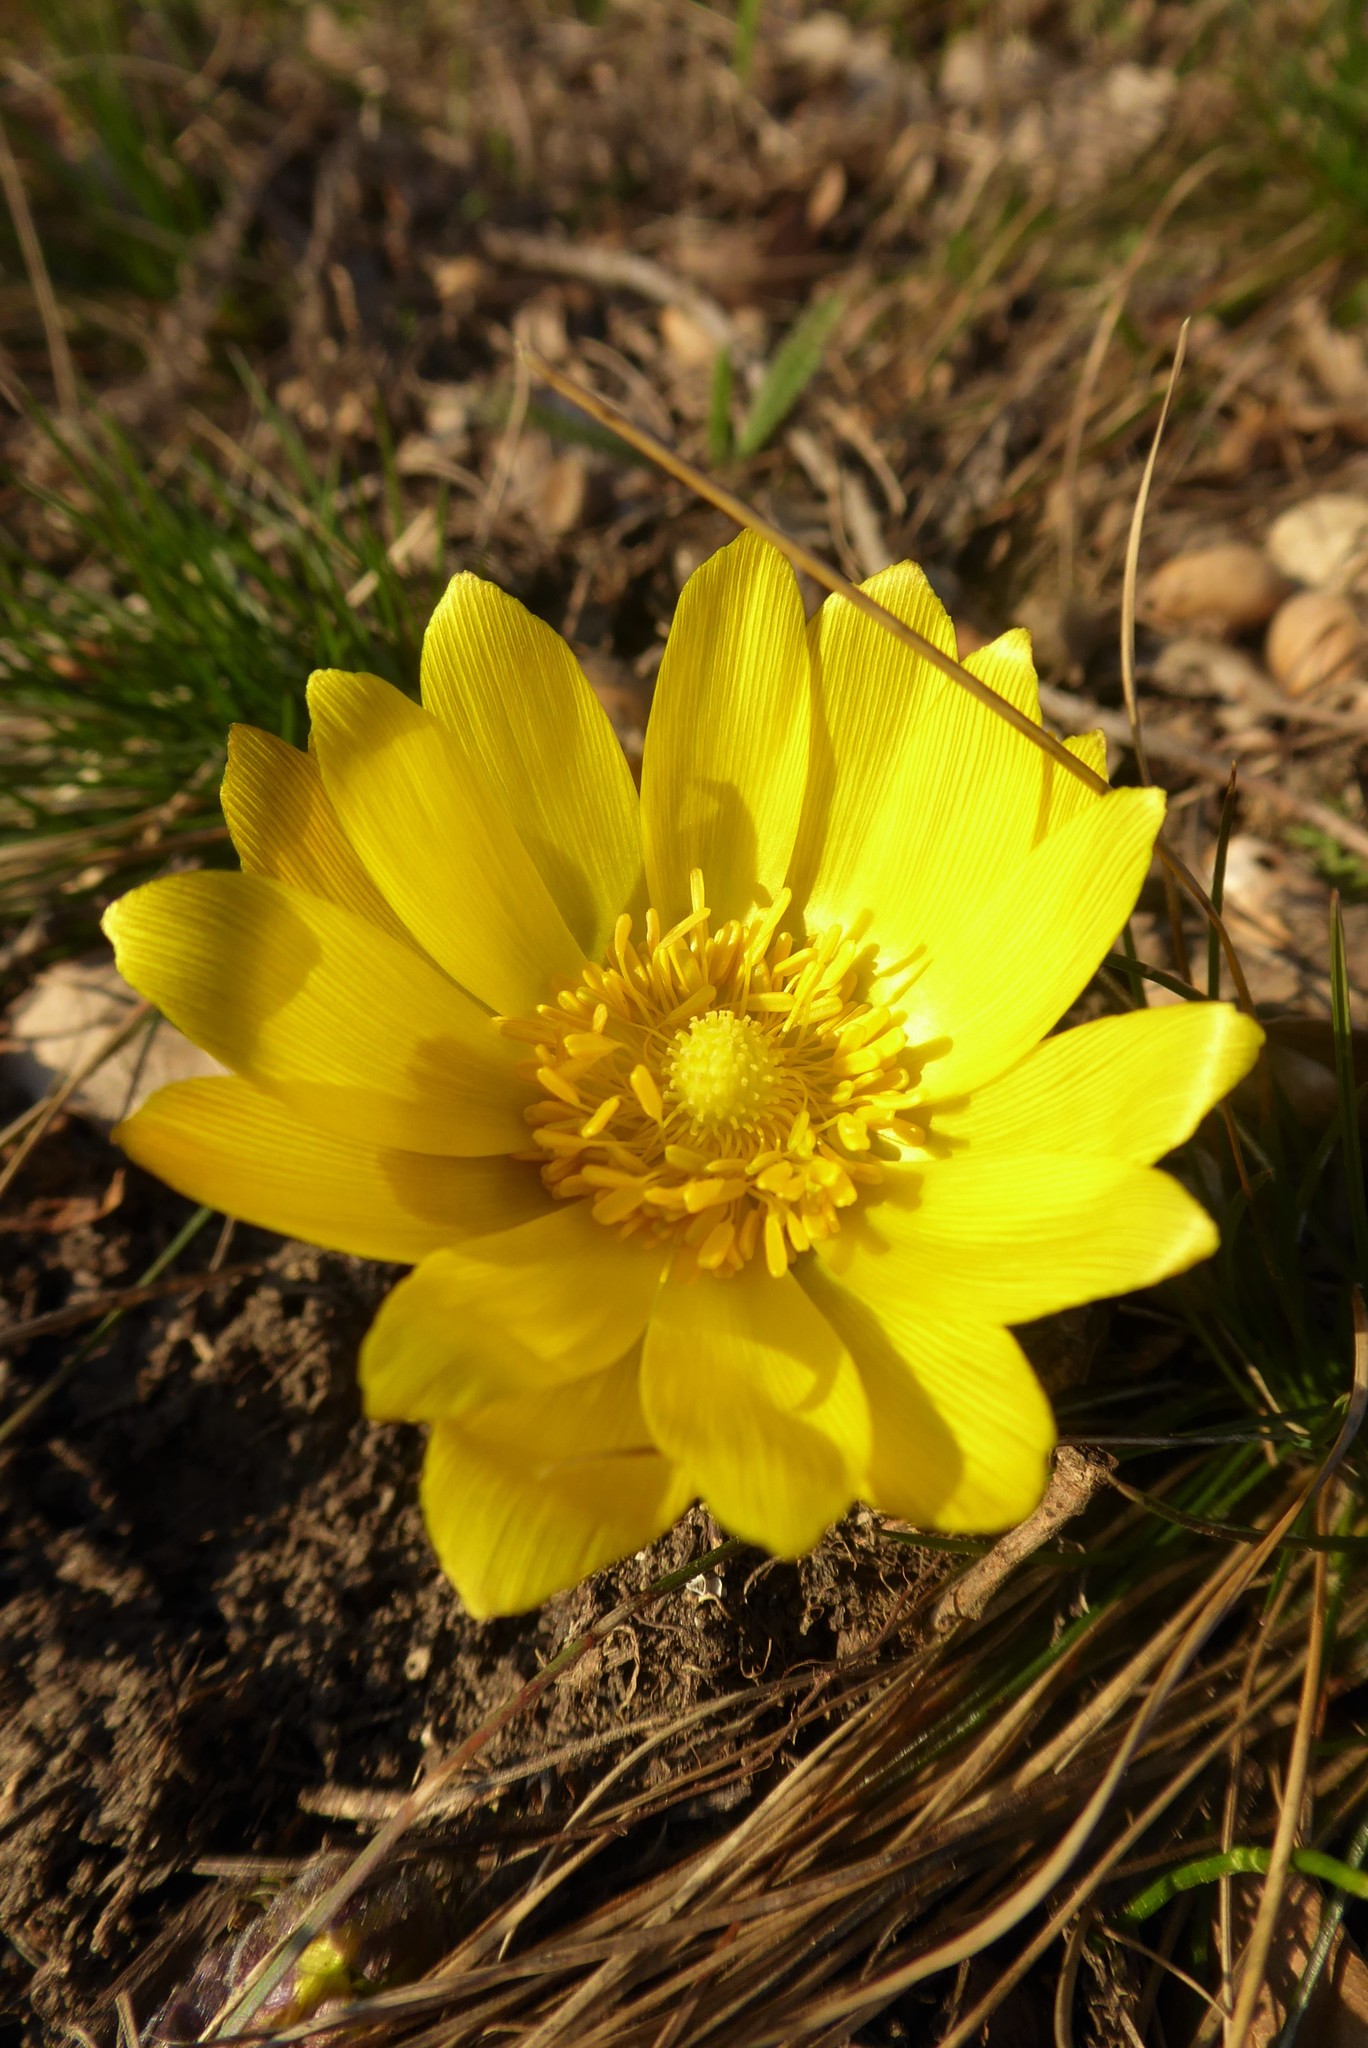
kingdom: Plantae
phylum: Tracheophyta
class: Magnoliopsida
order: Ranunculales
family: Ranunculaceae
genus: Adonis
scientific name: Adonis vernalis
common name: Yellow pheasants-eye
